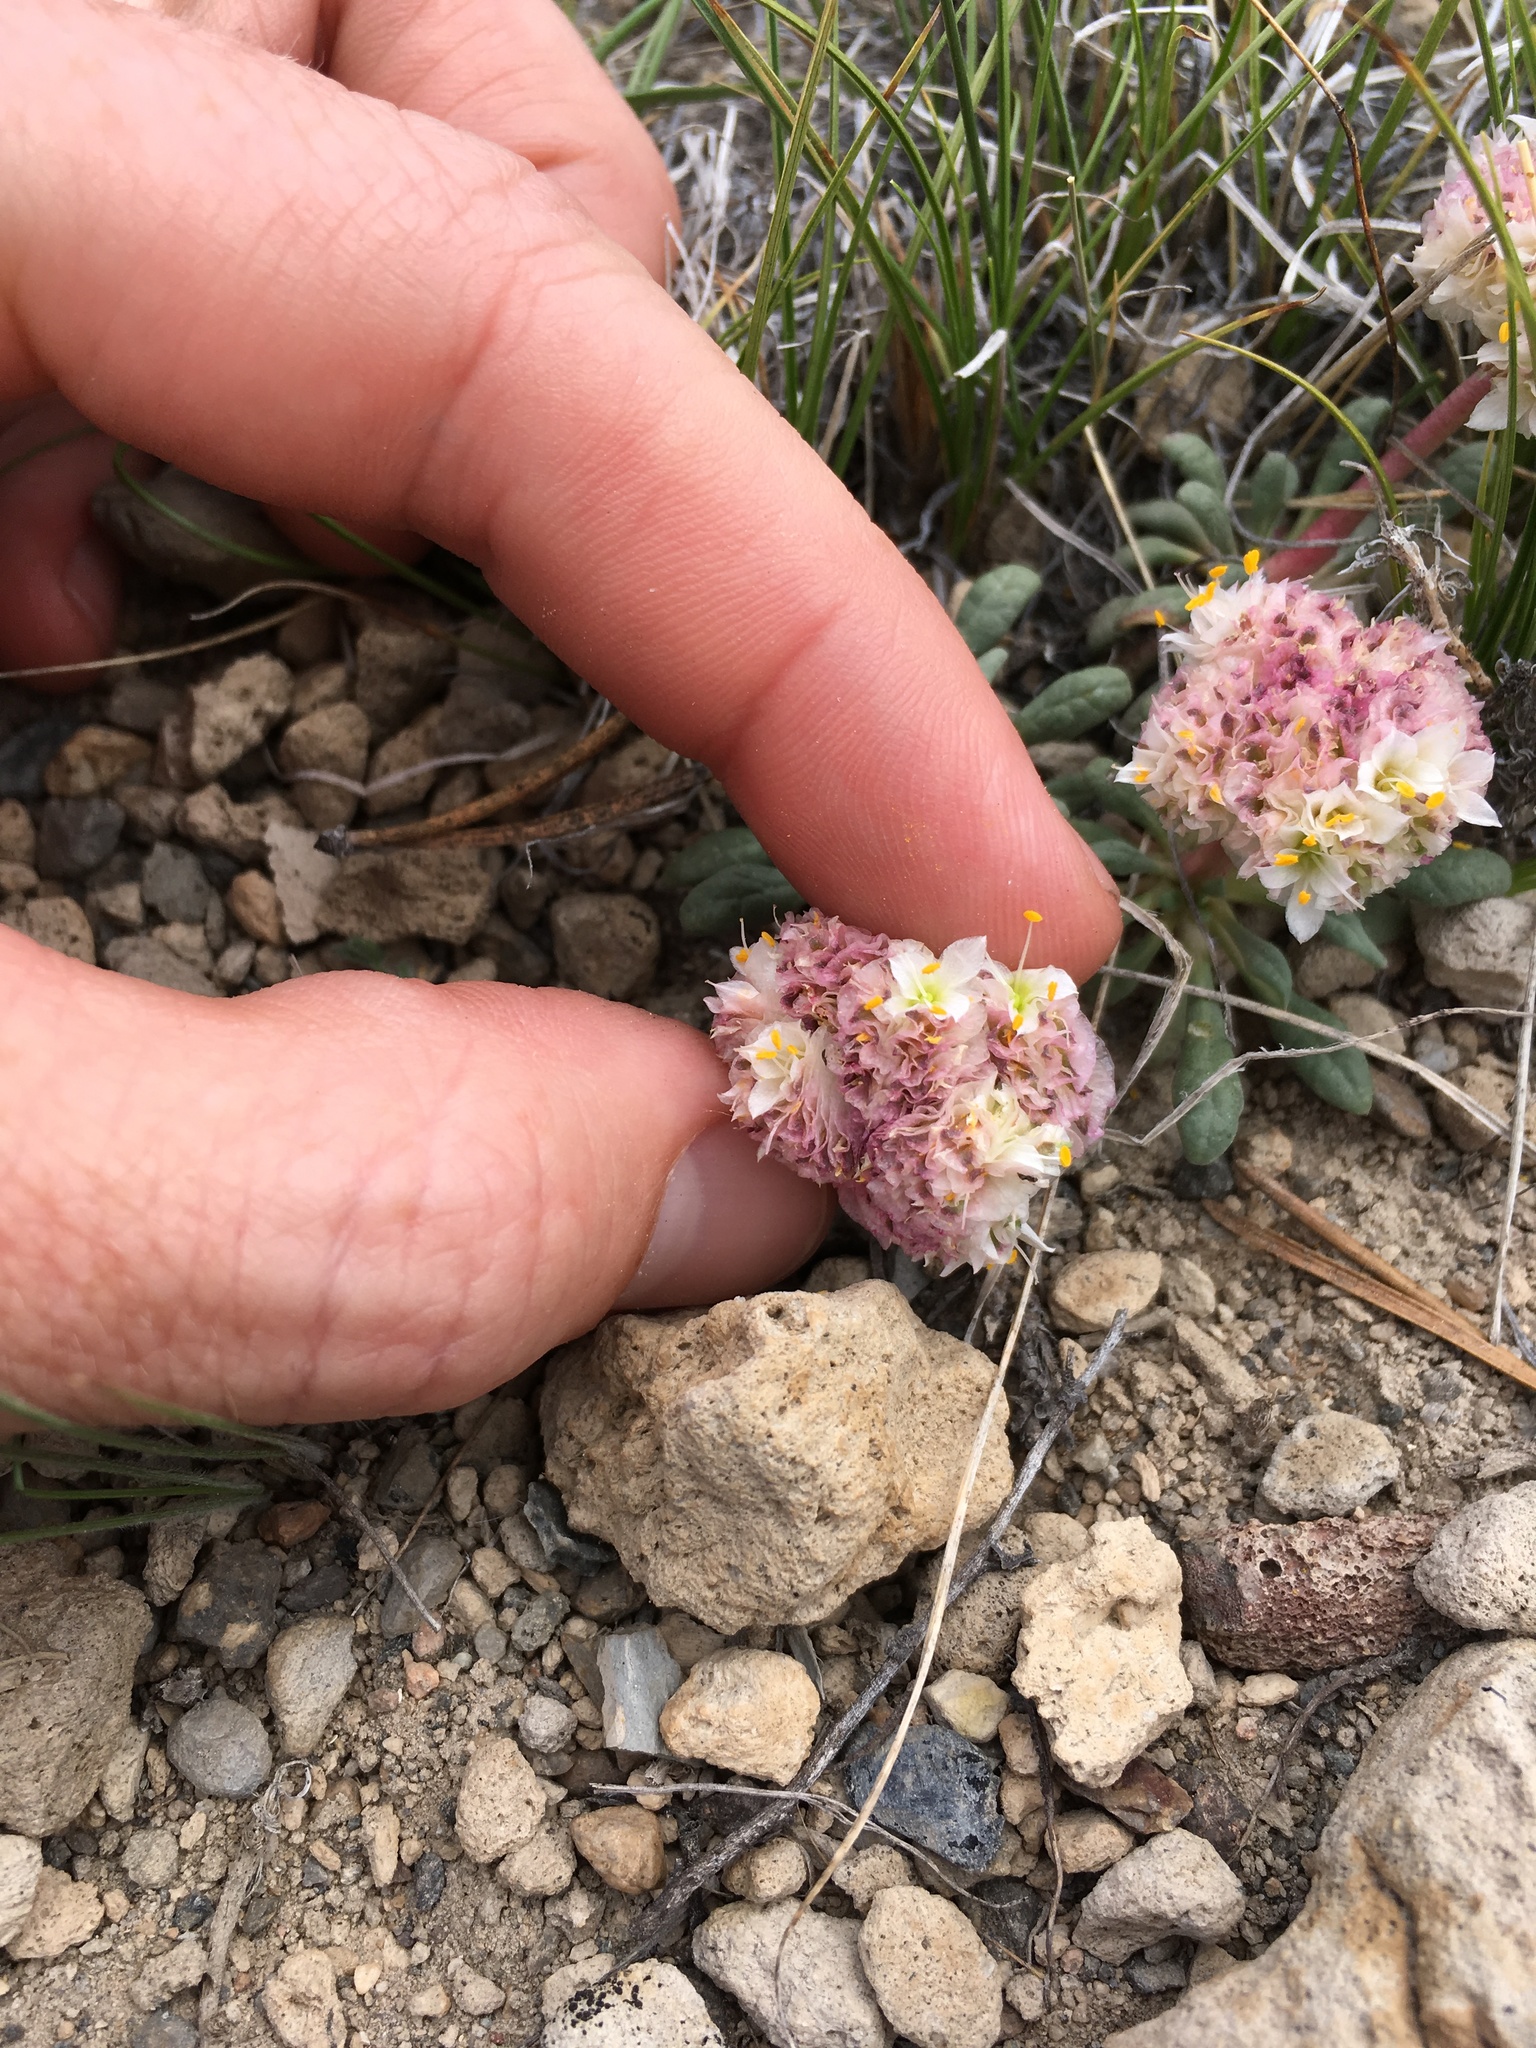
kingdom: Plantae
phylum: Tracheophyta
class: Magnoliopsida
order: Caryophyllales
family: Montiaceae
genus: Calyptridium
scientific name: Calyptridium umbellatum
